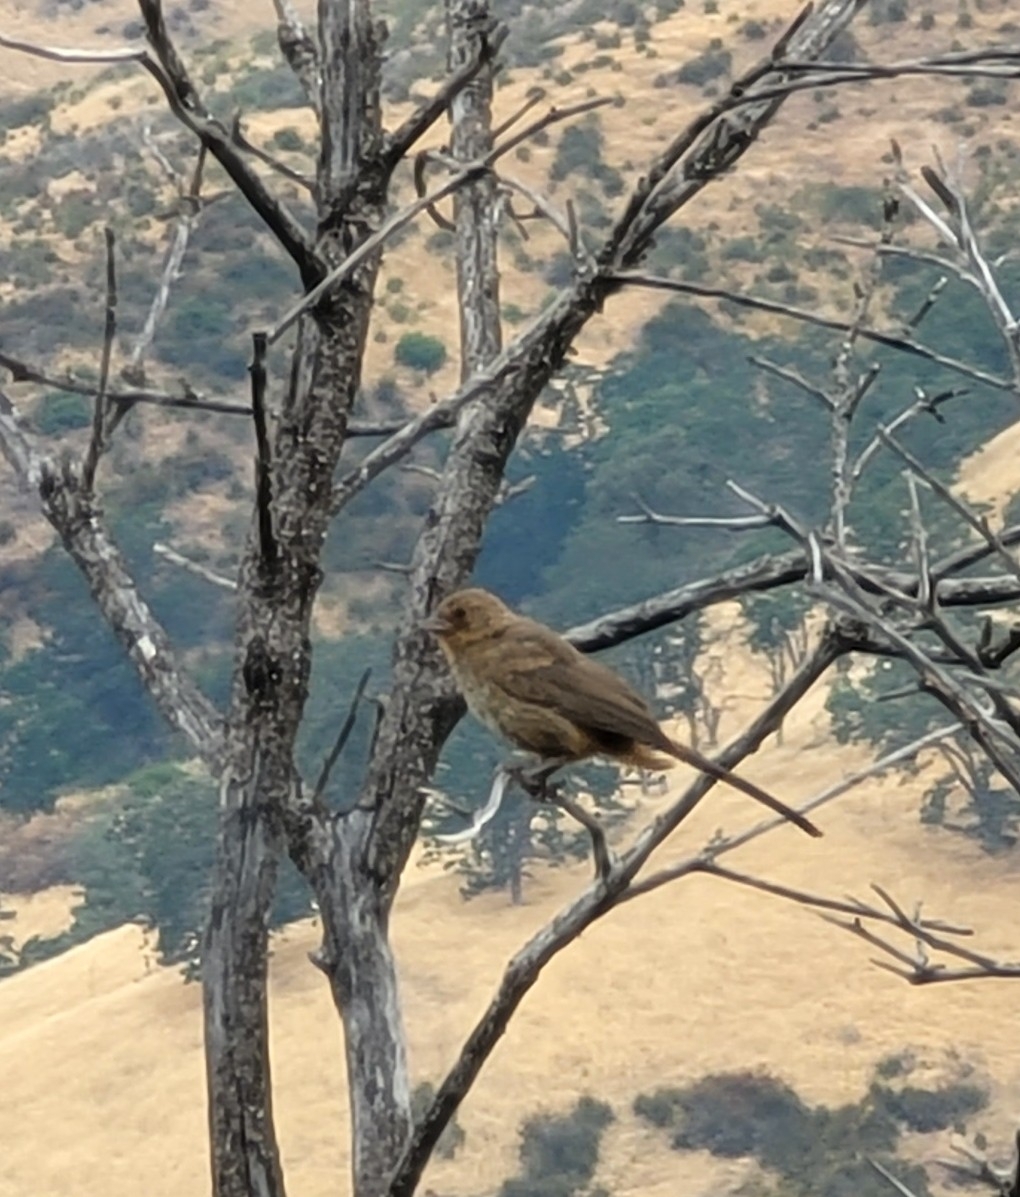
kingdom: Animalia
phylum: Chordata
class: Aves
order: Passeriformes
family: Passerellidae
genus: Melozone
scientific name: Melozone crissalis
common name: California towhee
